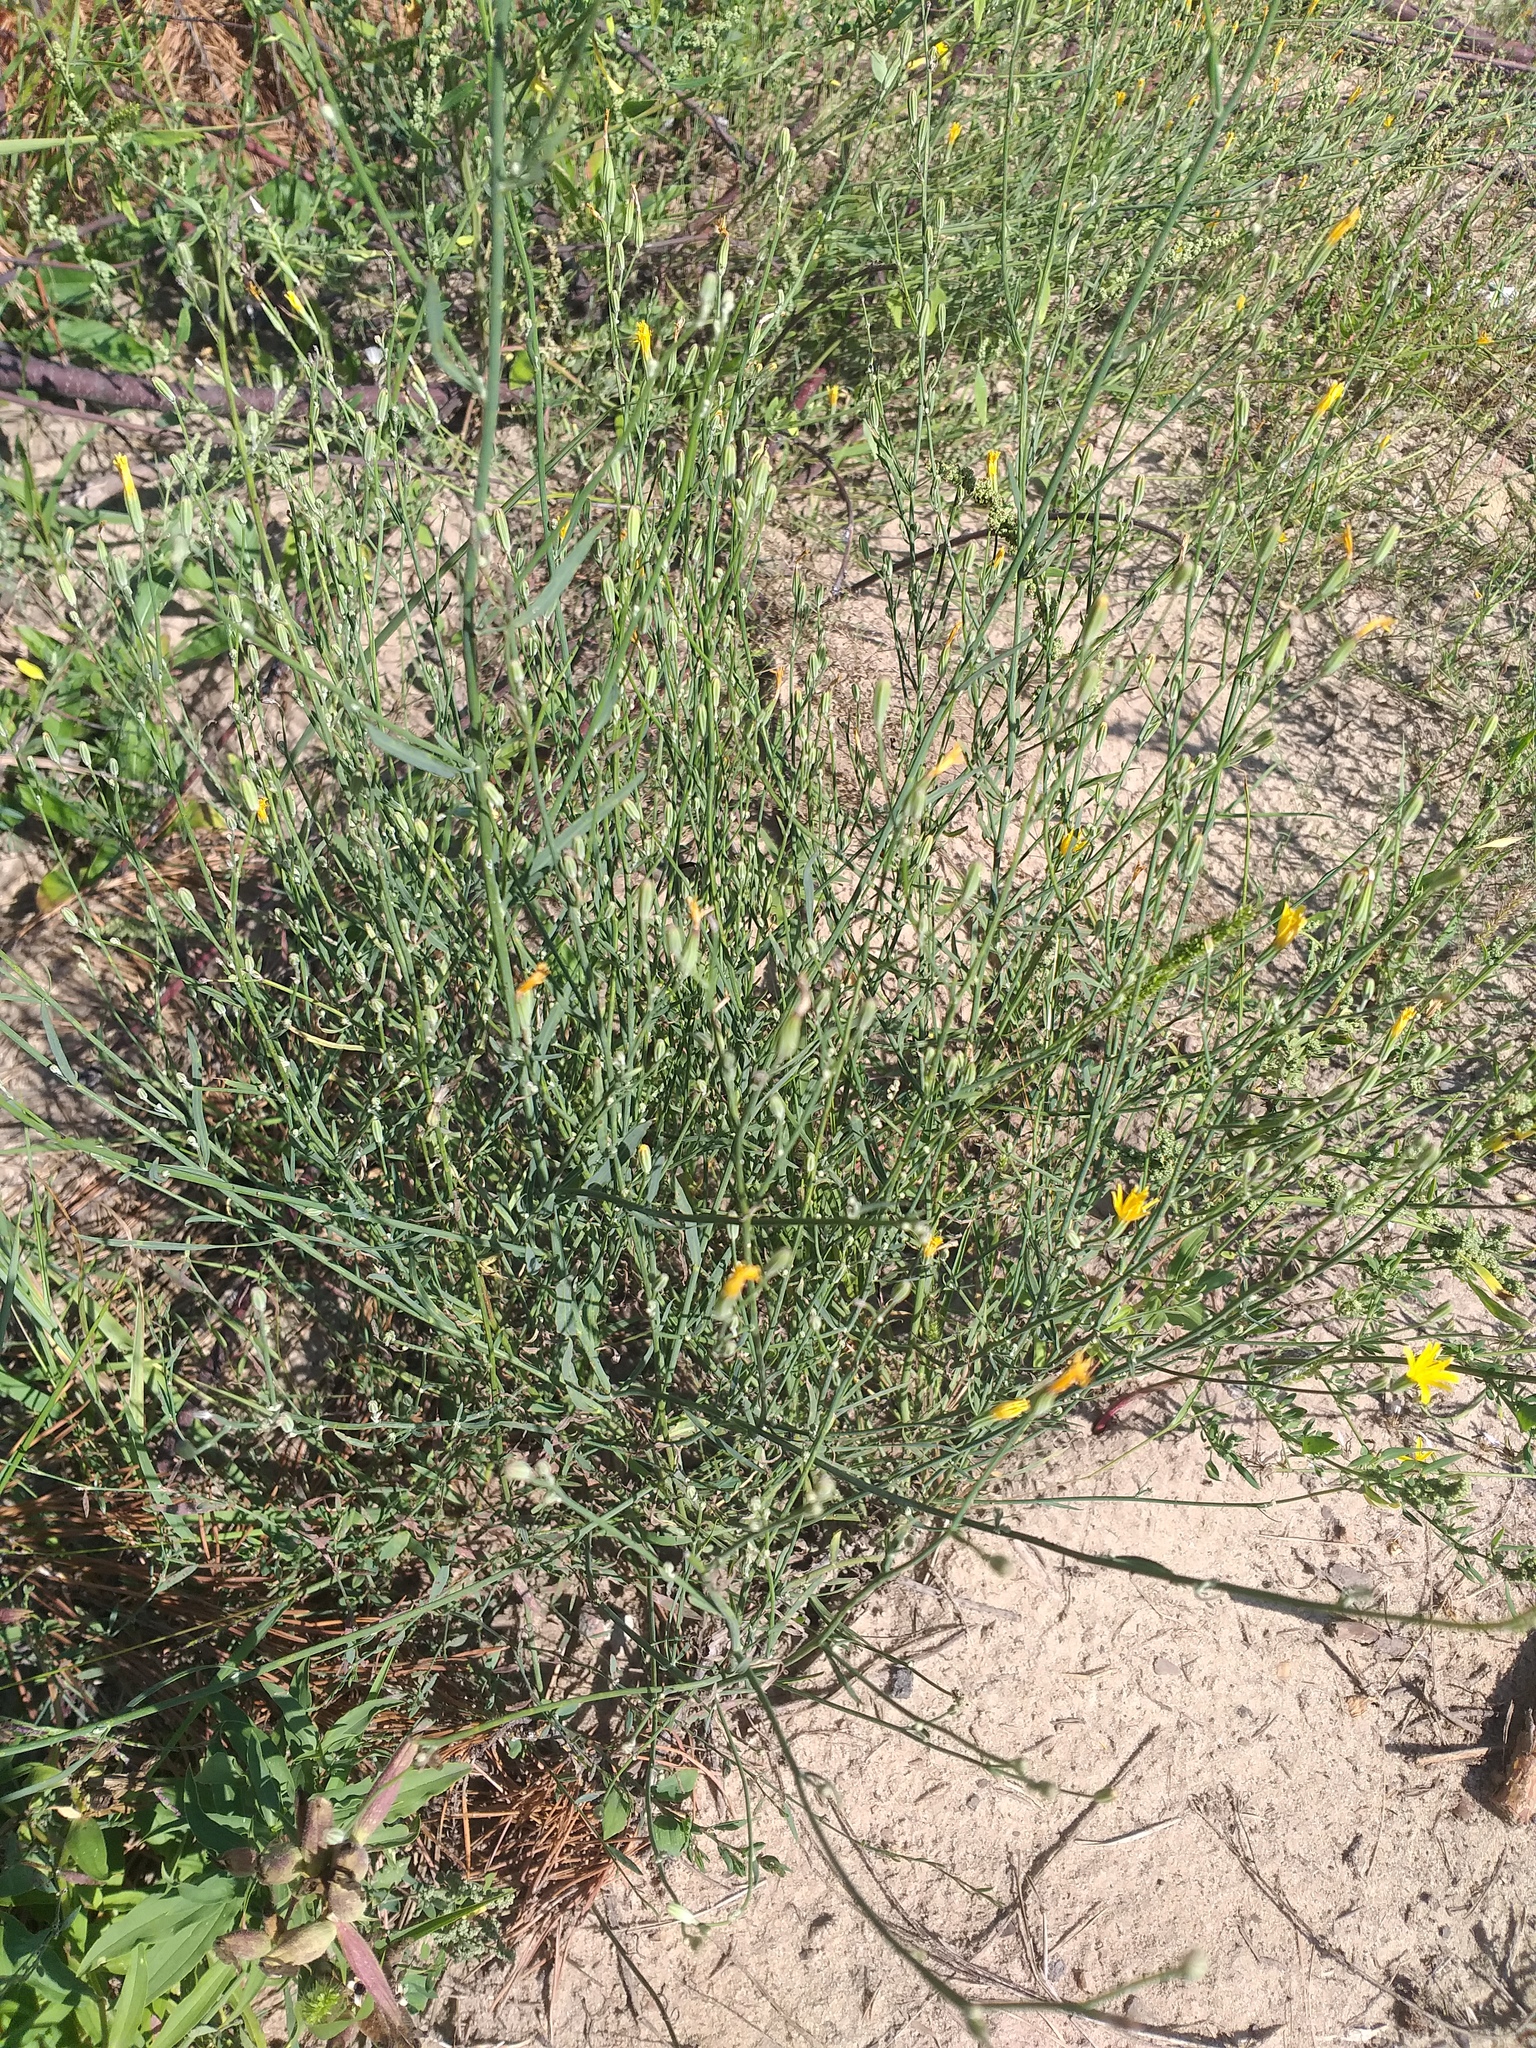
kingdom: Plantae
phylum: Tracheophyta
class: Magnoliopsida
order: Asterales
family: Asteraceae
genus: Chondrilla
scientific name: Chondrilla juncea
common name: Skeleton weed
